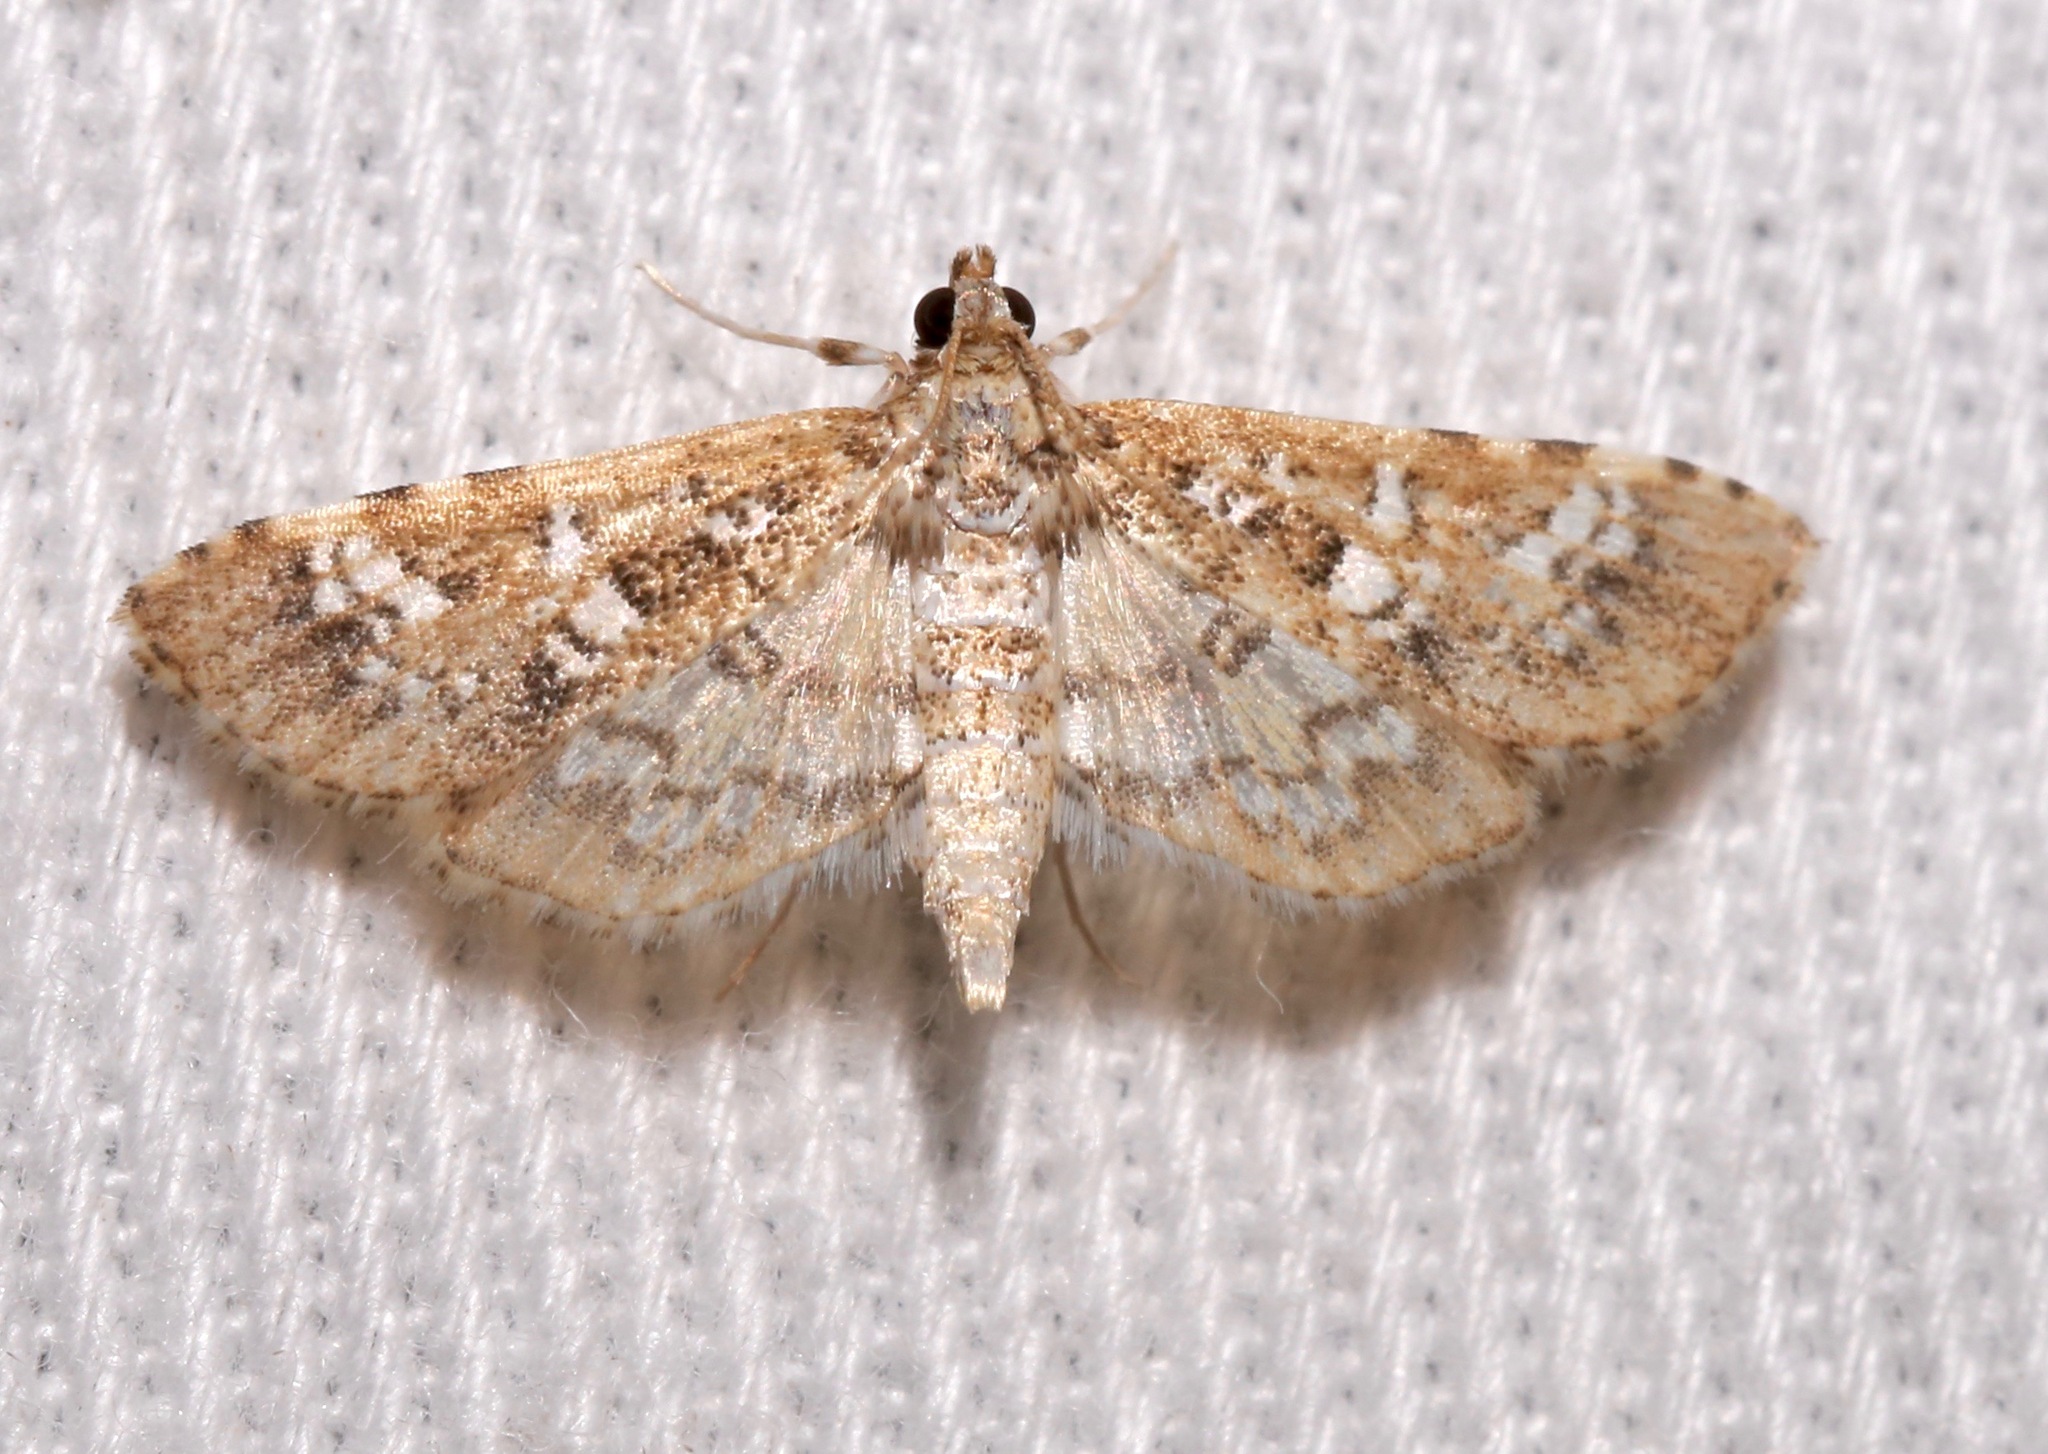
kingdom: Animalia
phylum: Arthropoda
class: Insecta
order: Lepidoptera
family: Crambidae
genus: Samea
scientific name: Samea multiplicalis
